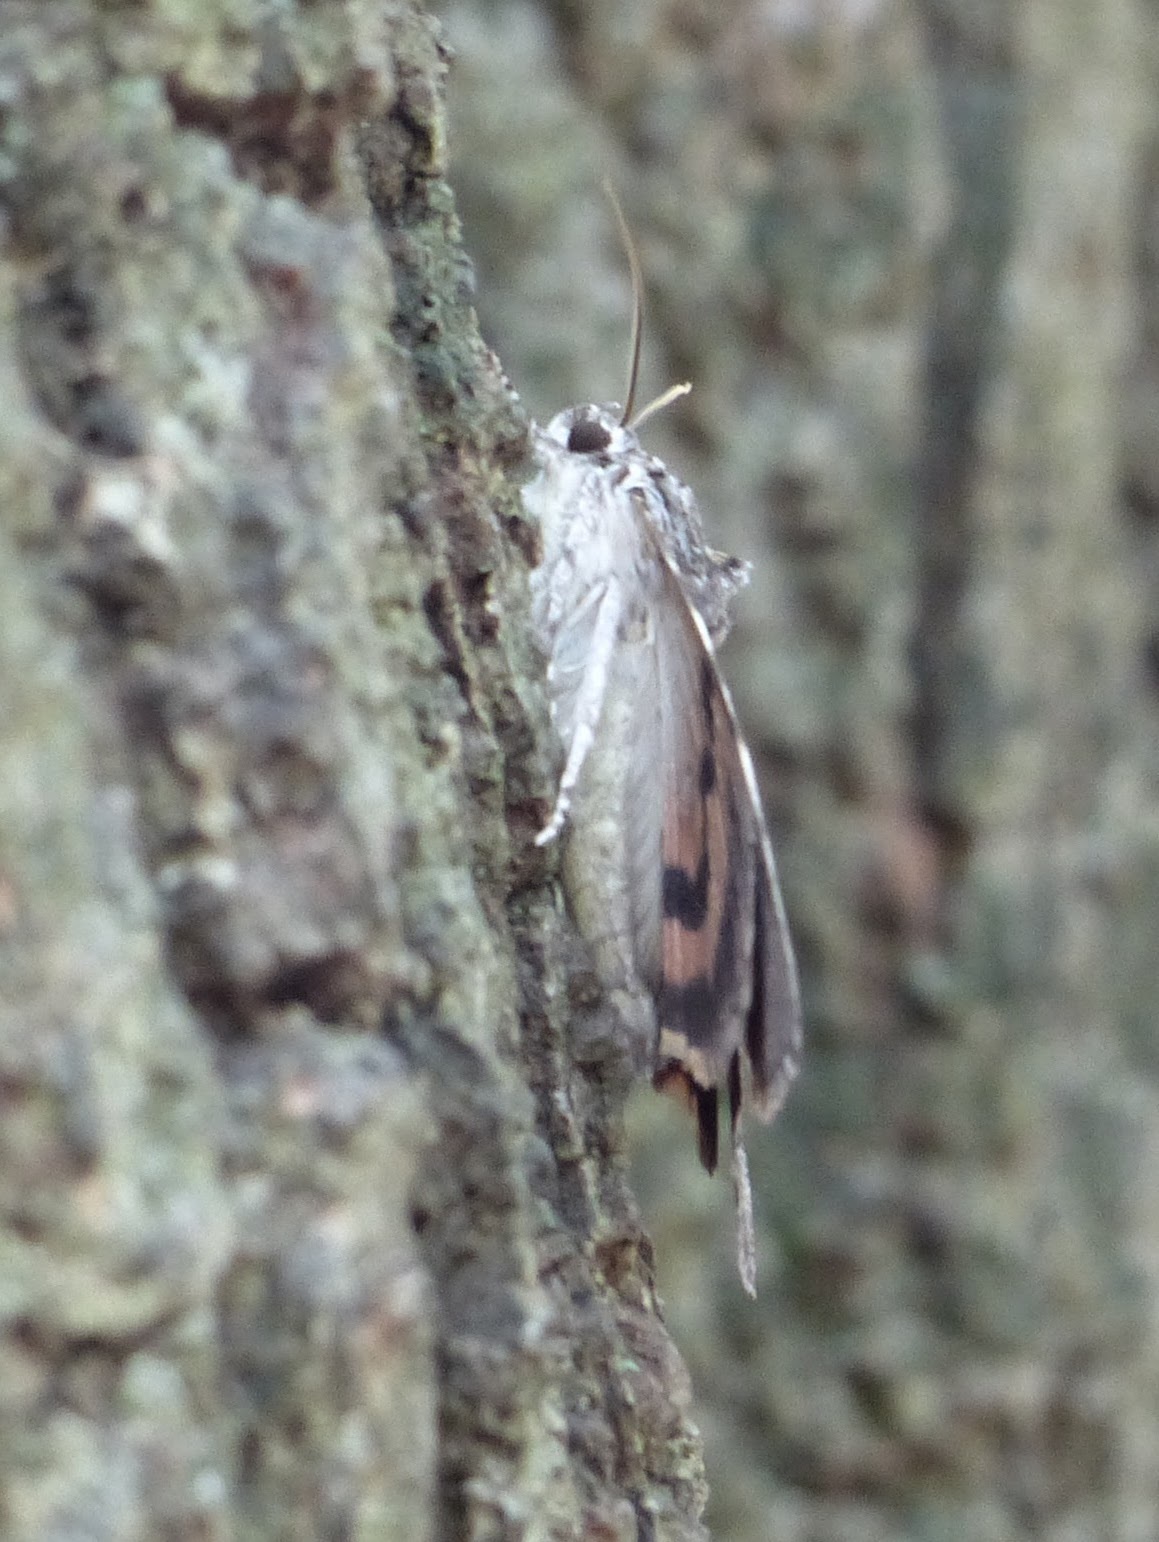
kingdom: Animalia
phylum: Arthropoda
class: Insecta
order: Lepidoptera
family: Erebidae
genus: Catocala
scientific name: Catocala palaeogama
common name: Oldwife underwing
